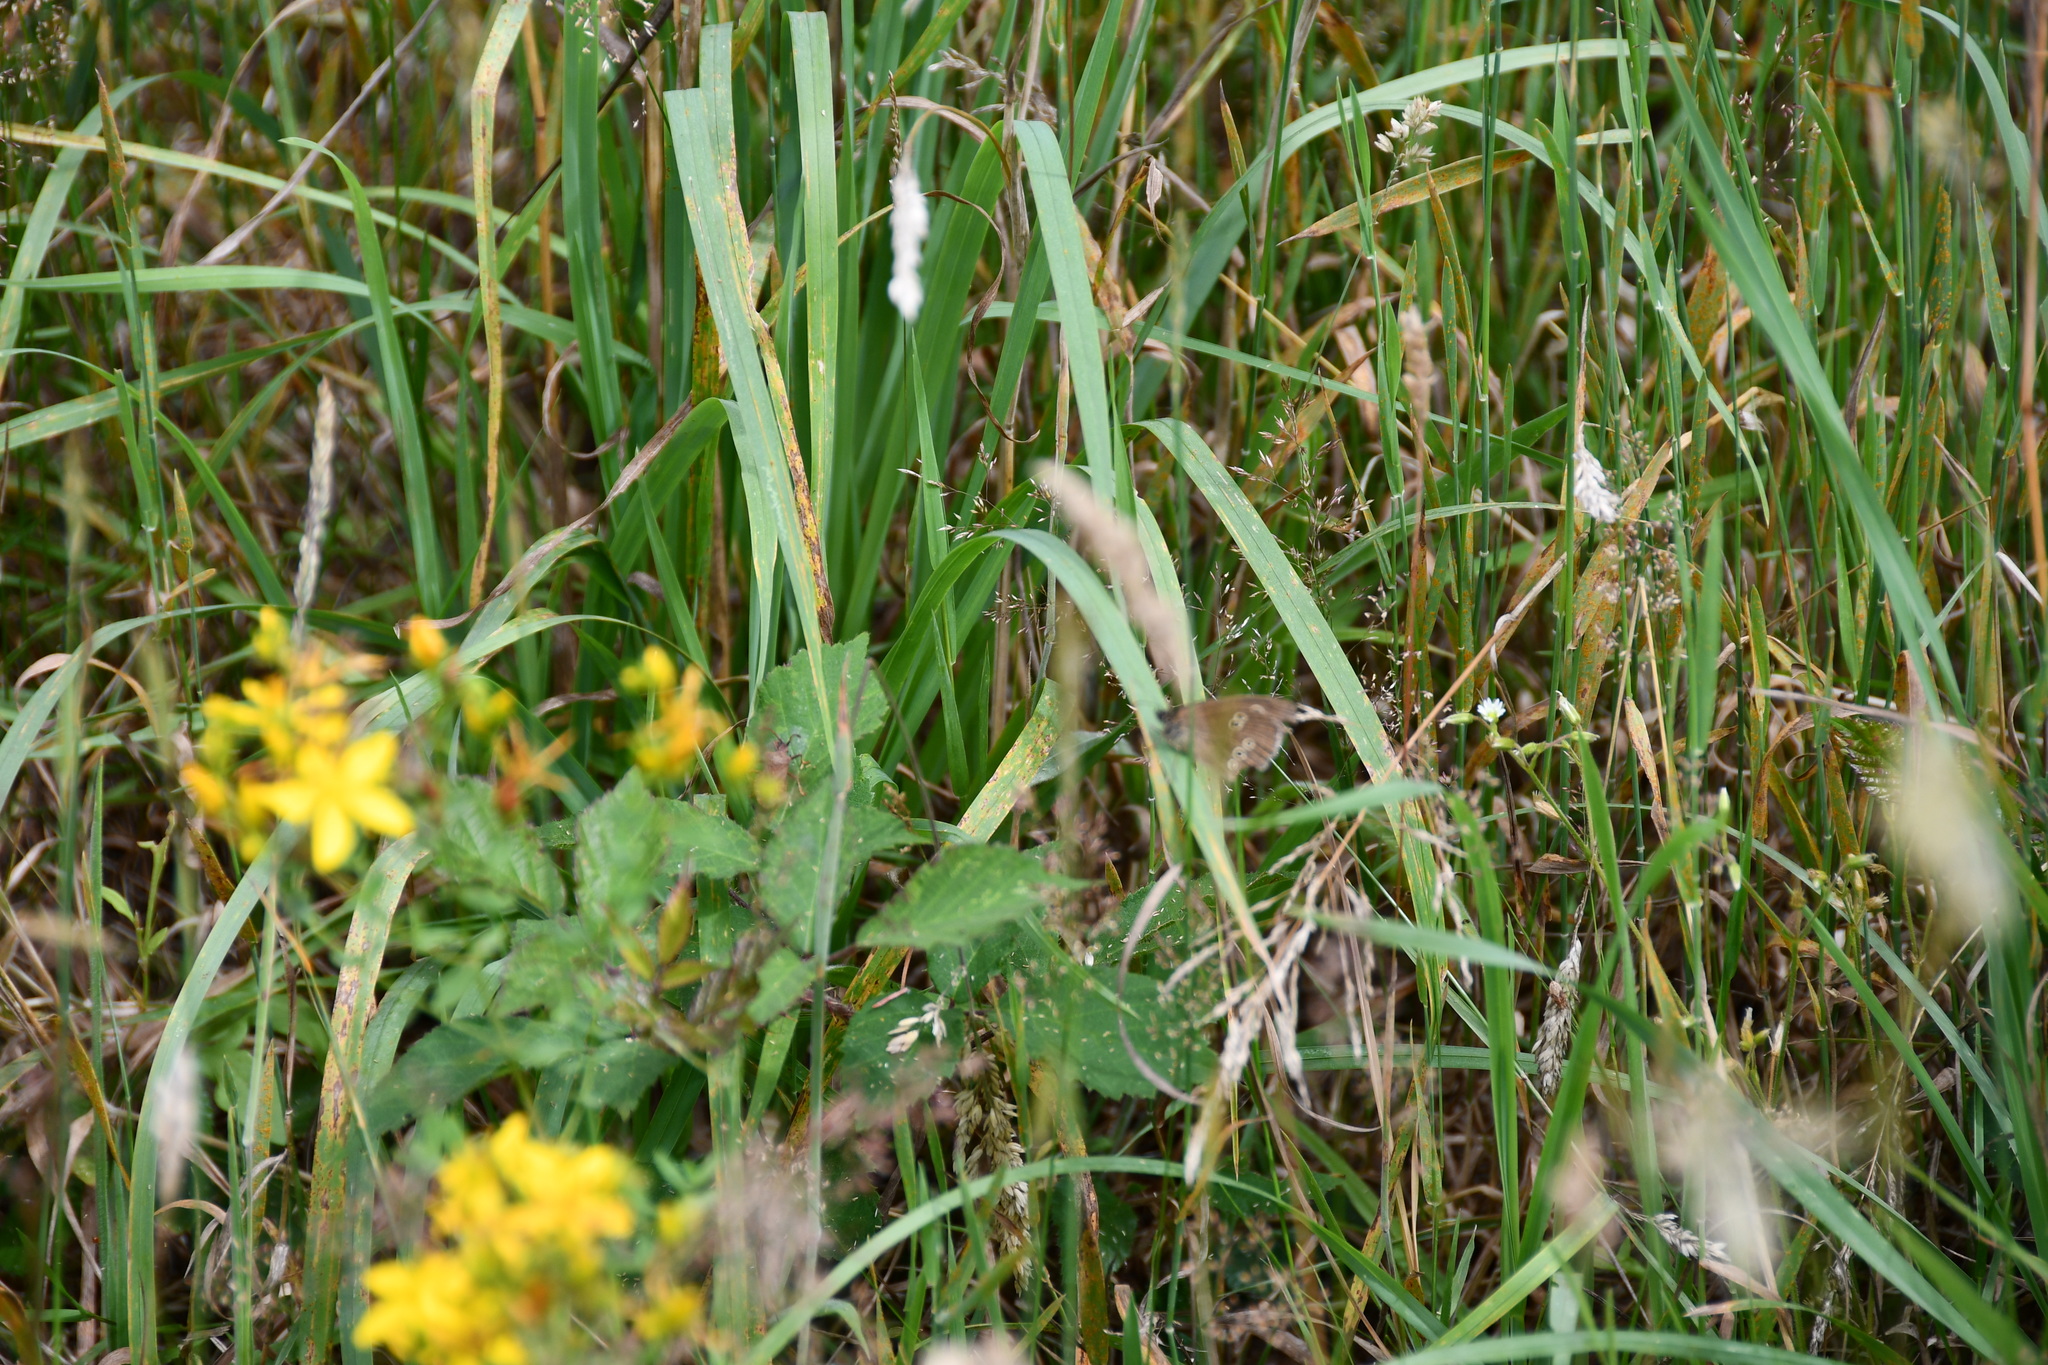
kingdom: Animalia
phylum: Arthropoda
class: Insecta
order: Lepidoptera
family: Nymphalidae
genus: Aphantopus
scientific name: Aphantopus hyperantus
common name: Ringlet
